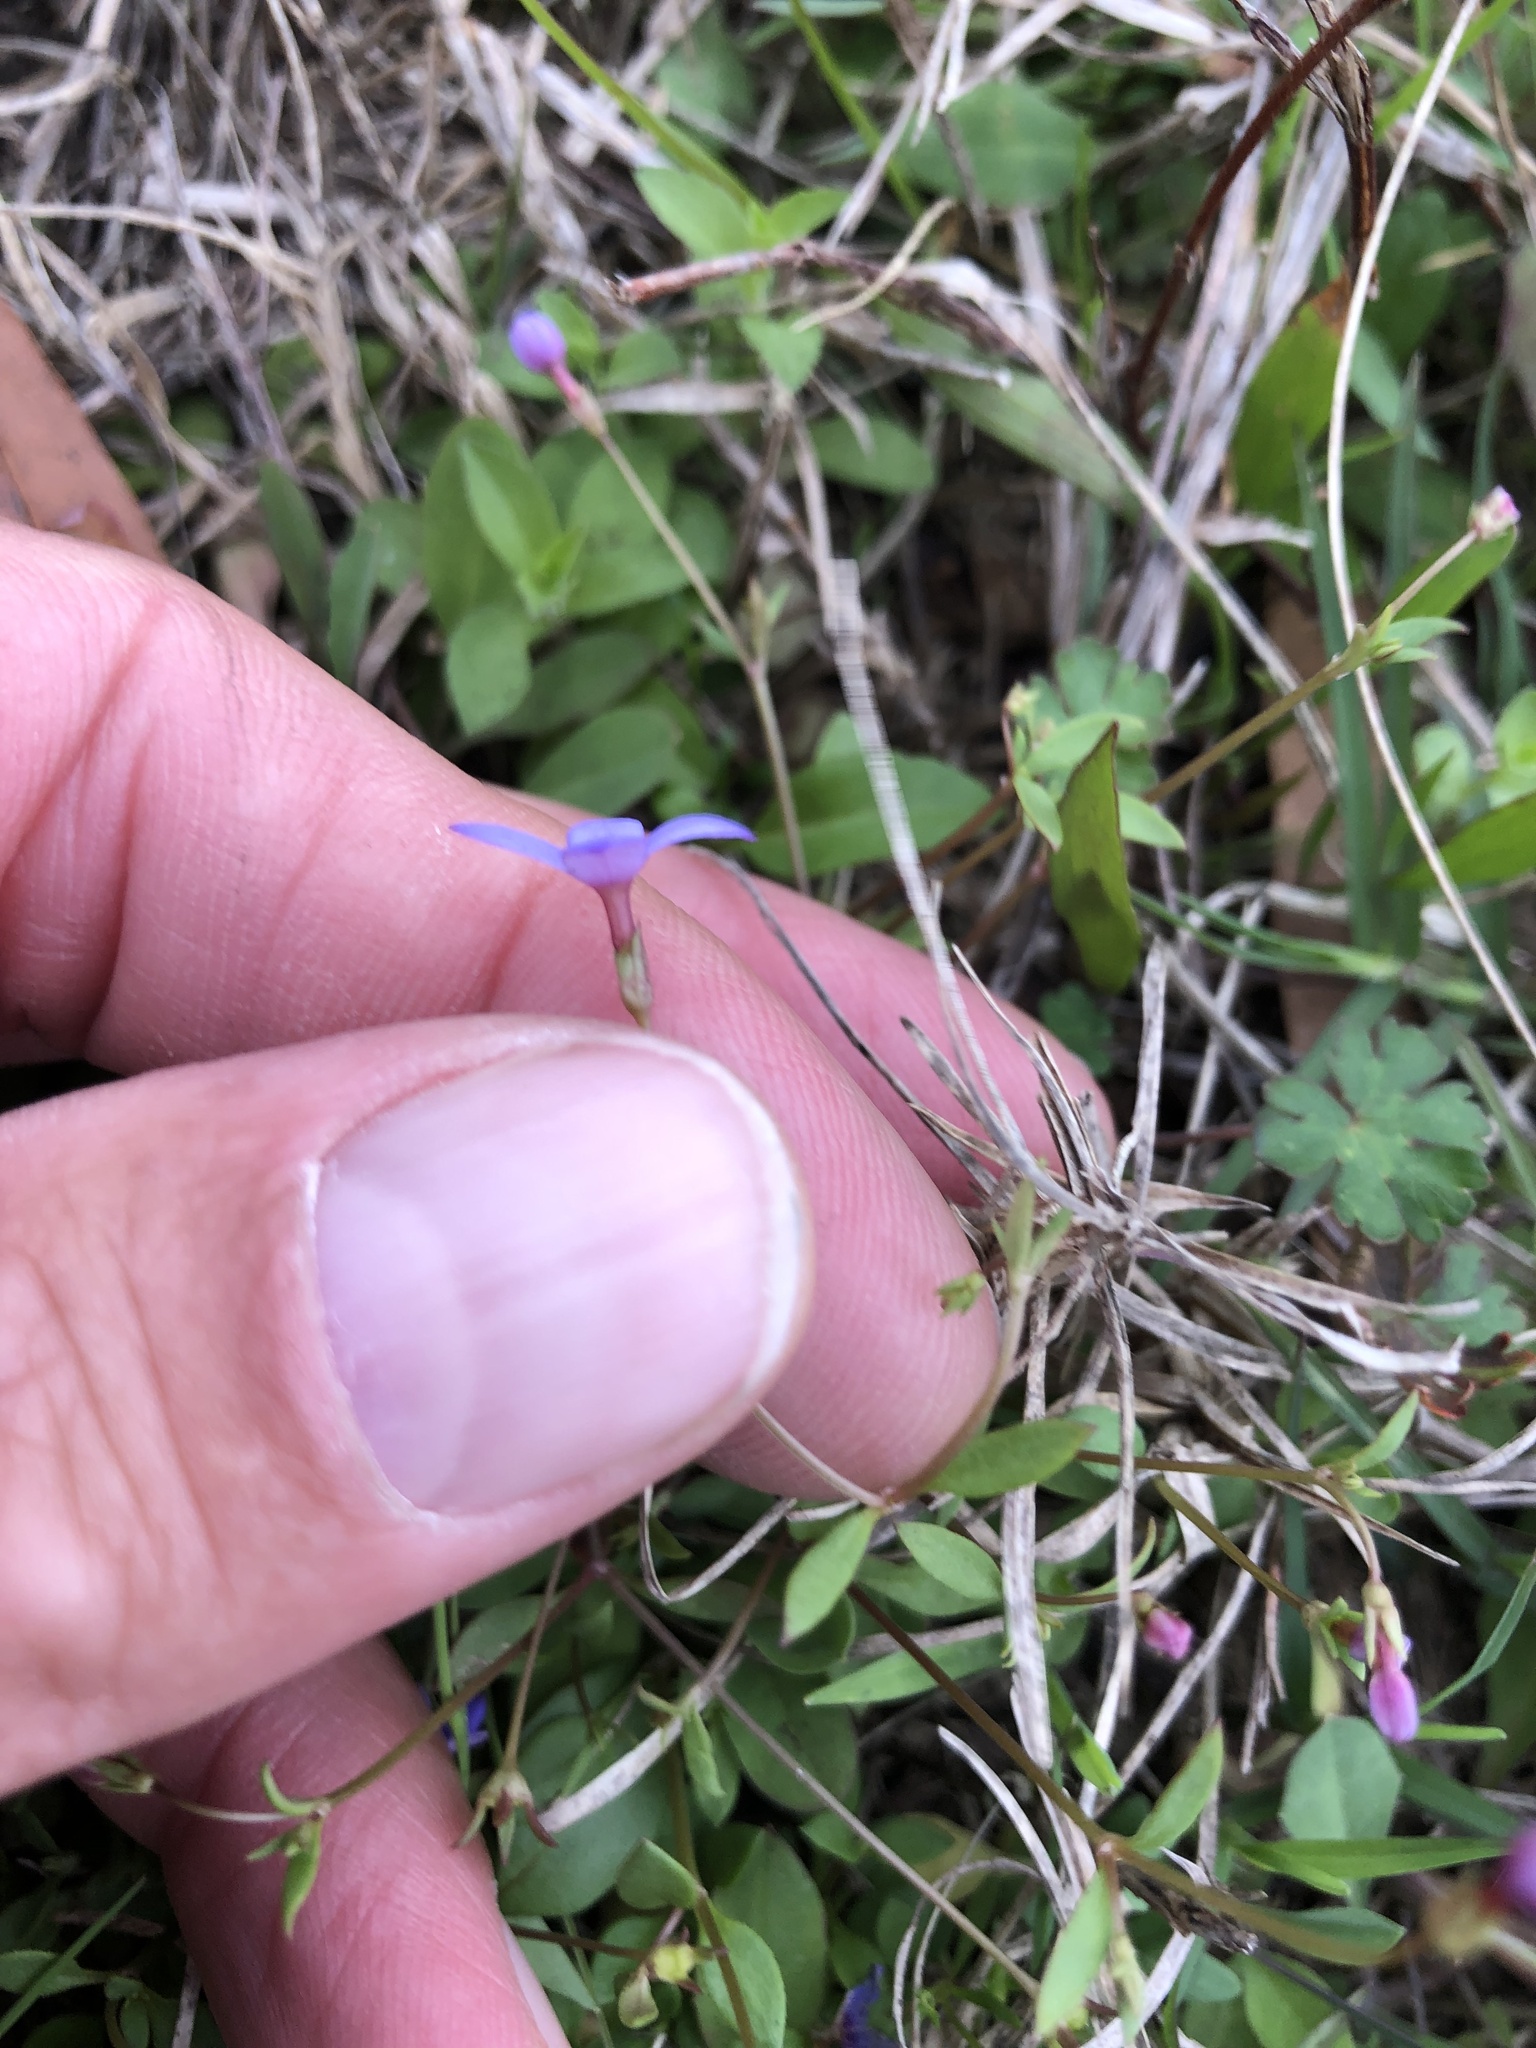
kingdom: Plantae
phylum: Tracheophyta
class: Magnoliopsida
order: Gentianales
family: Rubiaceae
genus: Houstonia
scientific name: Houstonia pusilla
